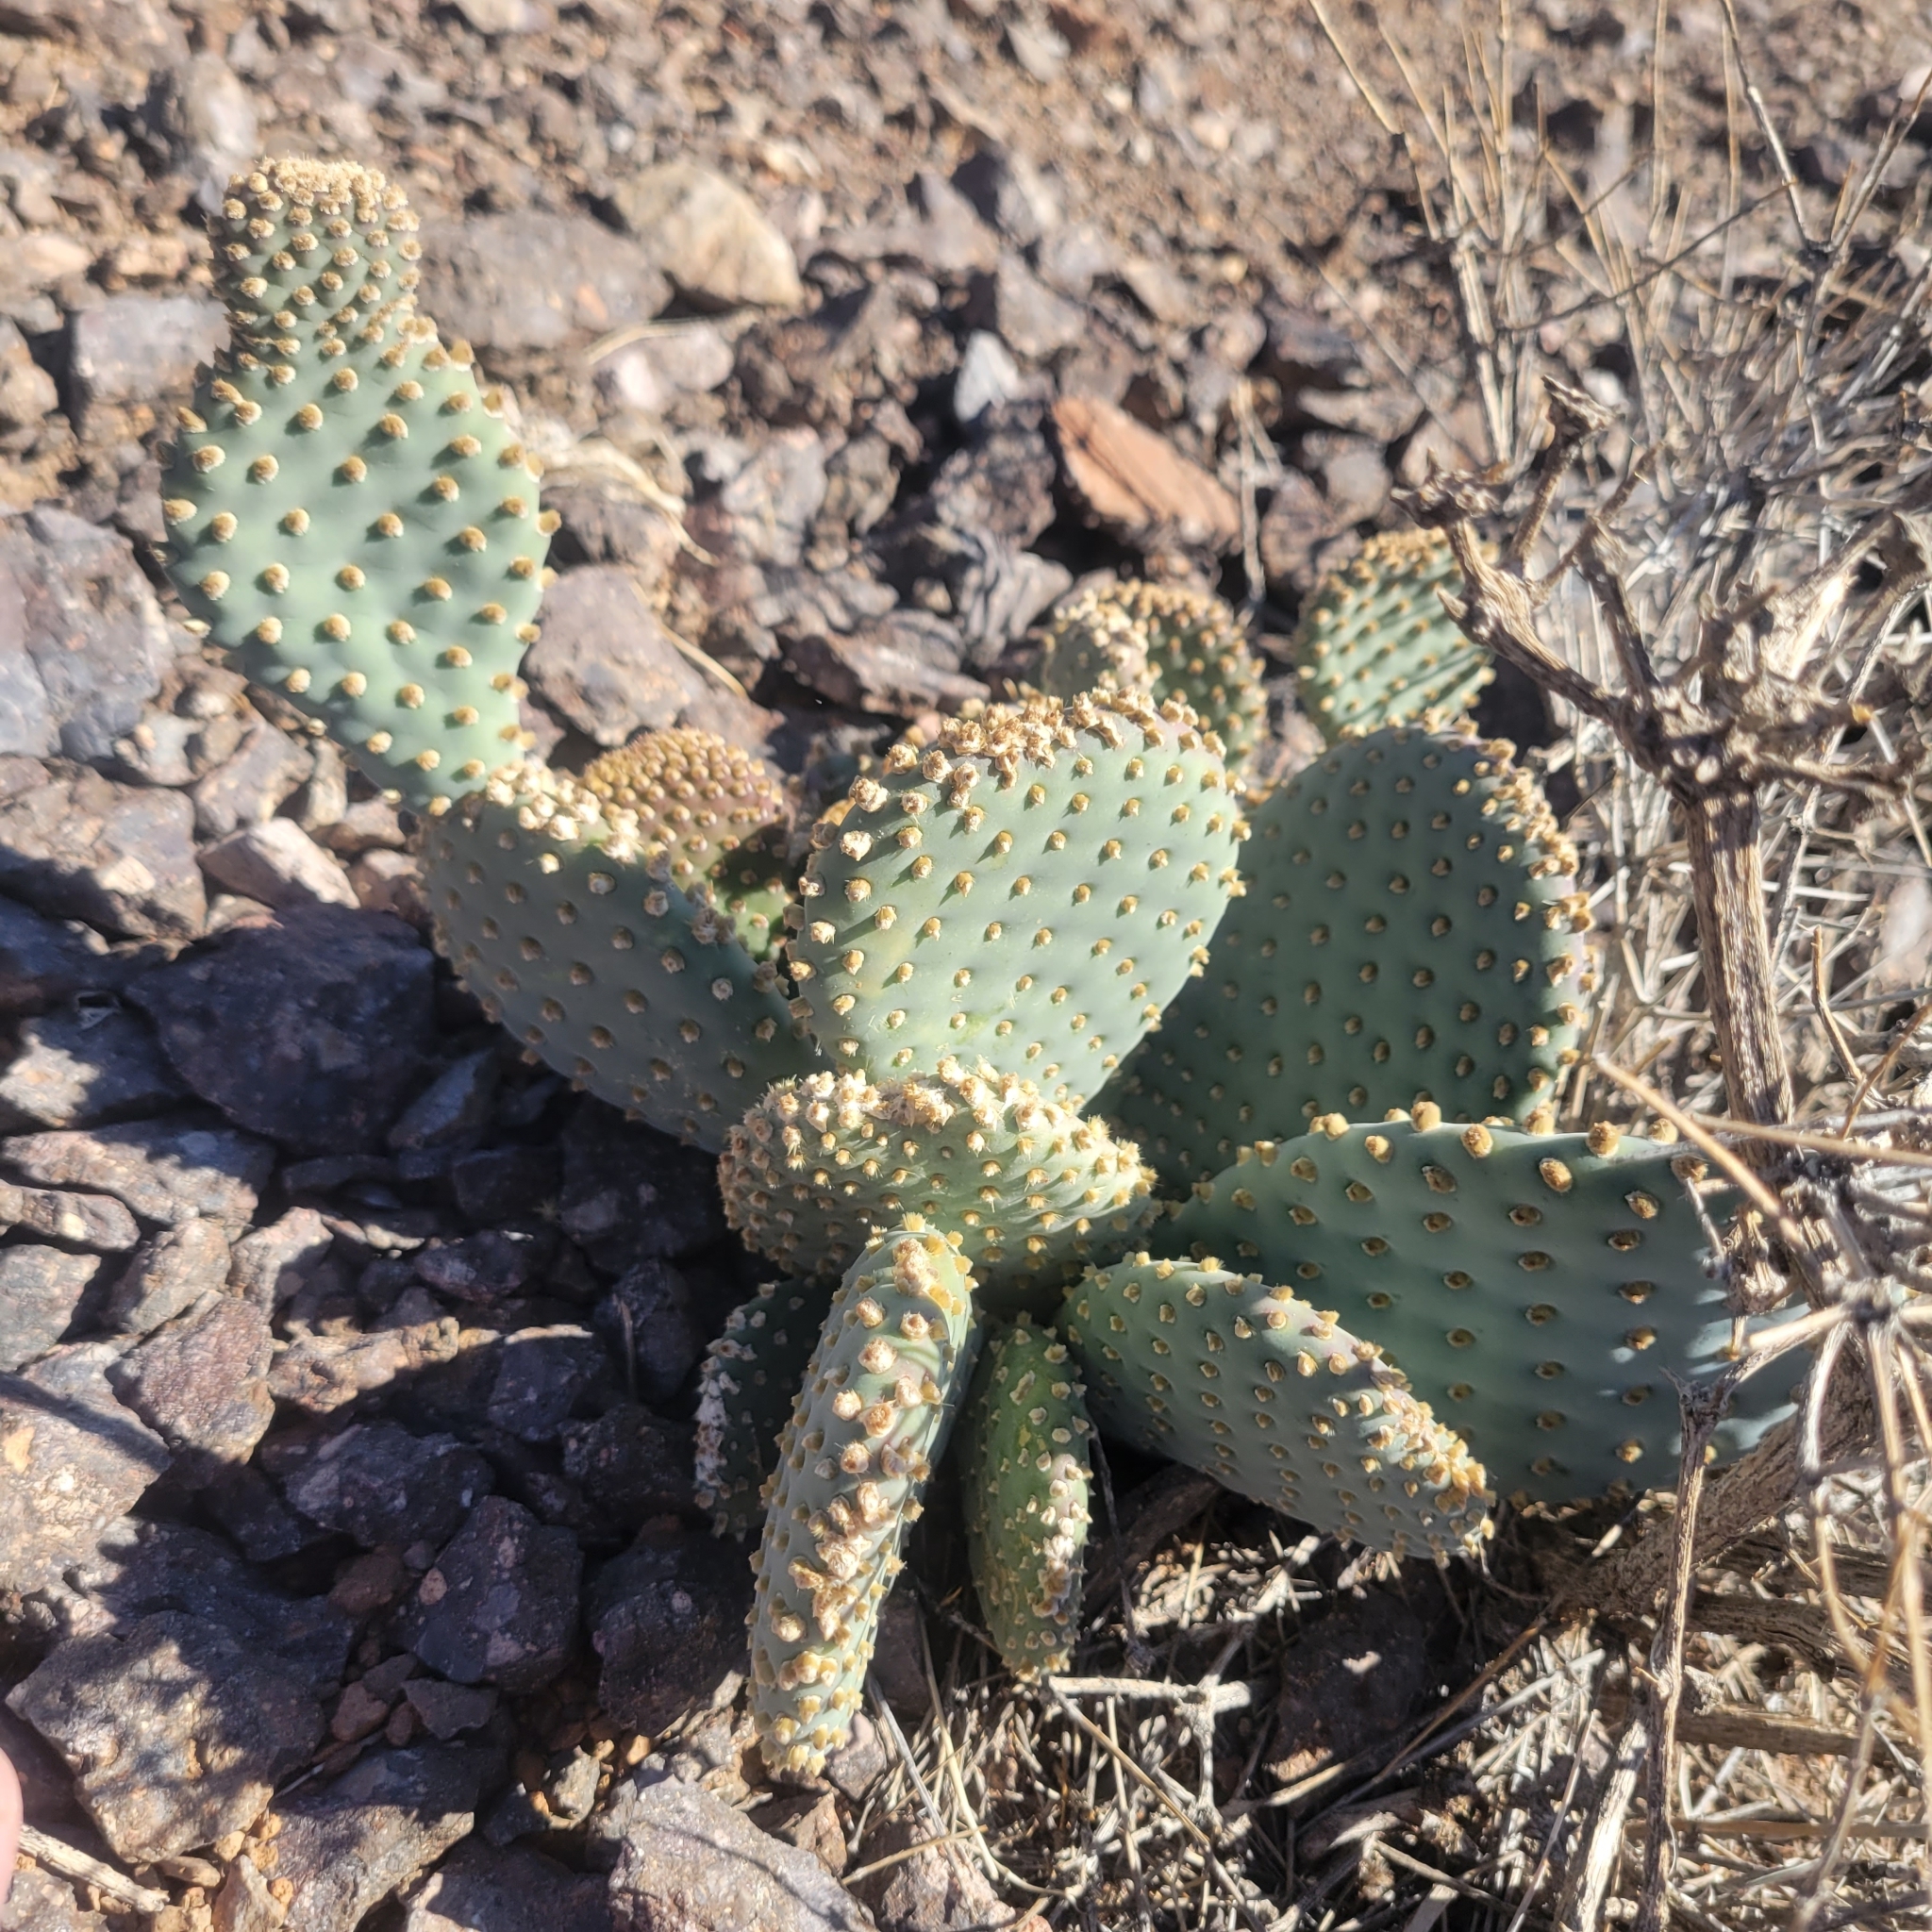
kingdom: Plantae
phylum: Tracheophyta
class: Magnoliopsida
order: Caryophyllales
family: Cactaceae
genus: Opuntia
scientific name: Opuntia basilaris
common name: Beavertail prickly-pear
